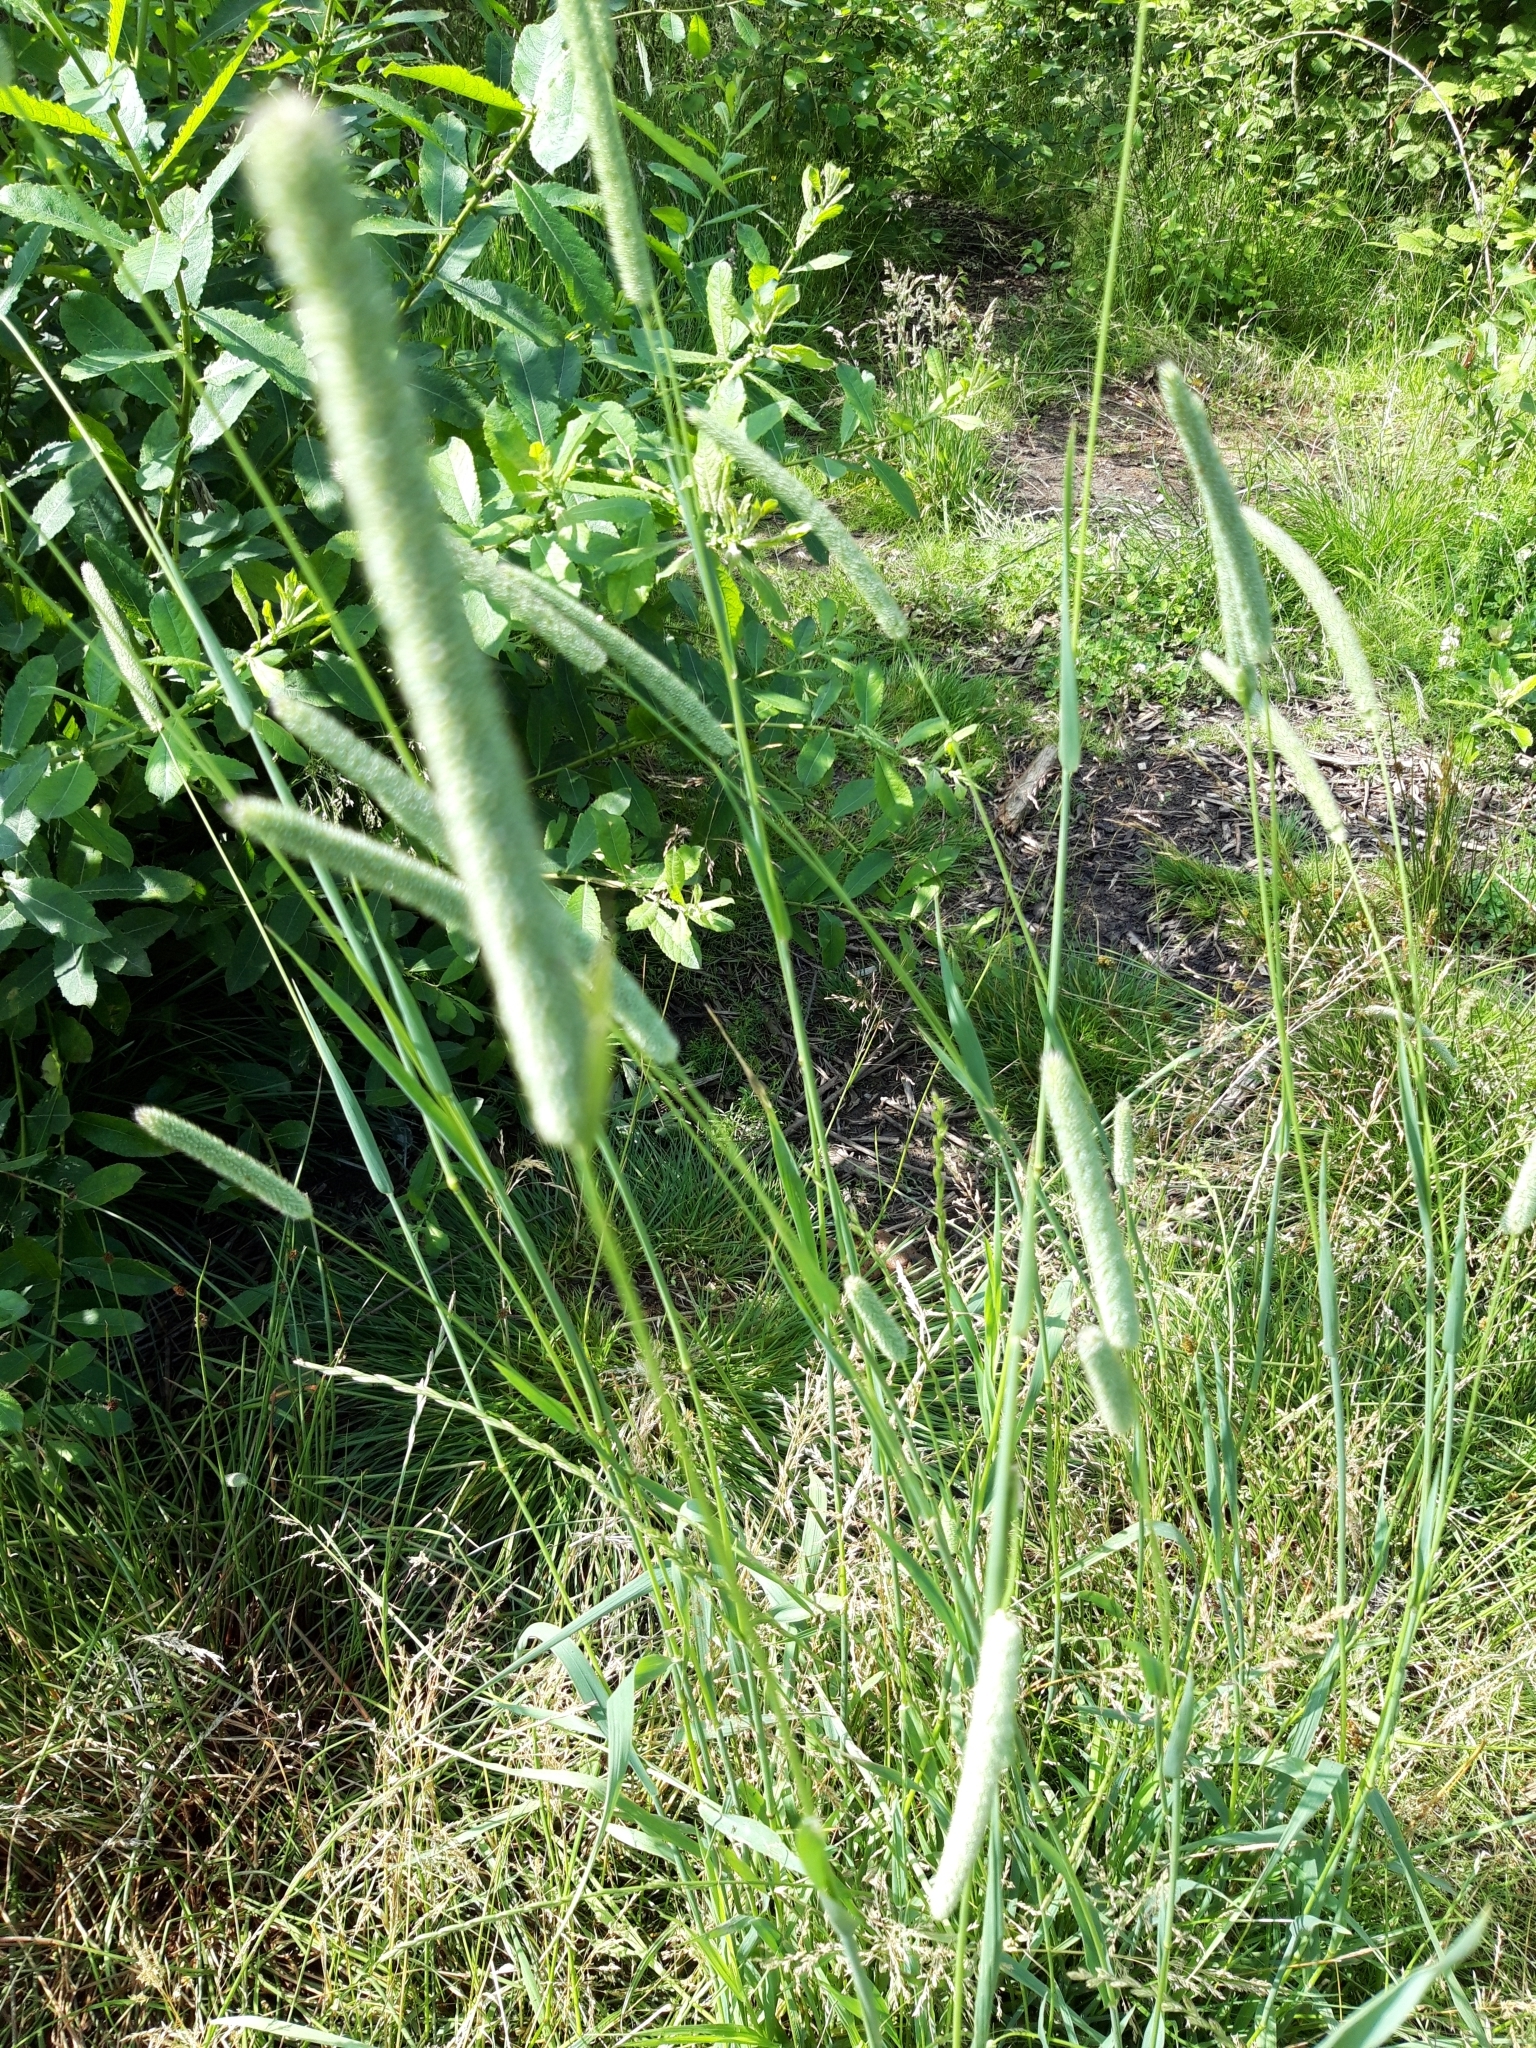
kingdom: Plantae
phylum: Tracheophyta
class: Liliopsida
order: Poales
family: Poaceae
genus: Phleum
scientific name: Phleum pratense
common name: Timothy grass
